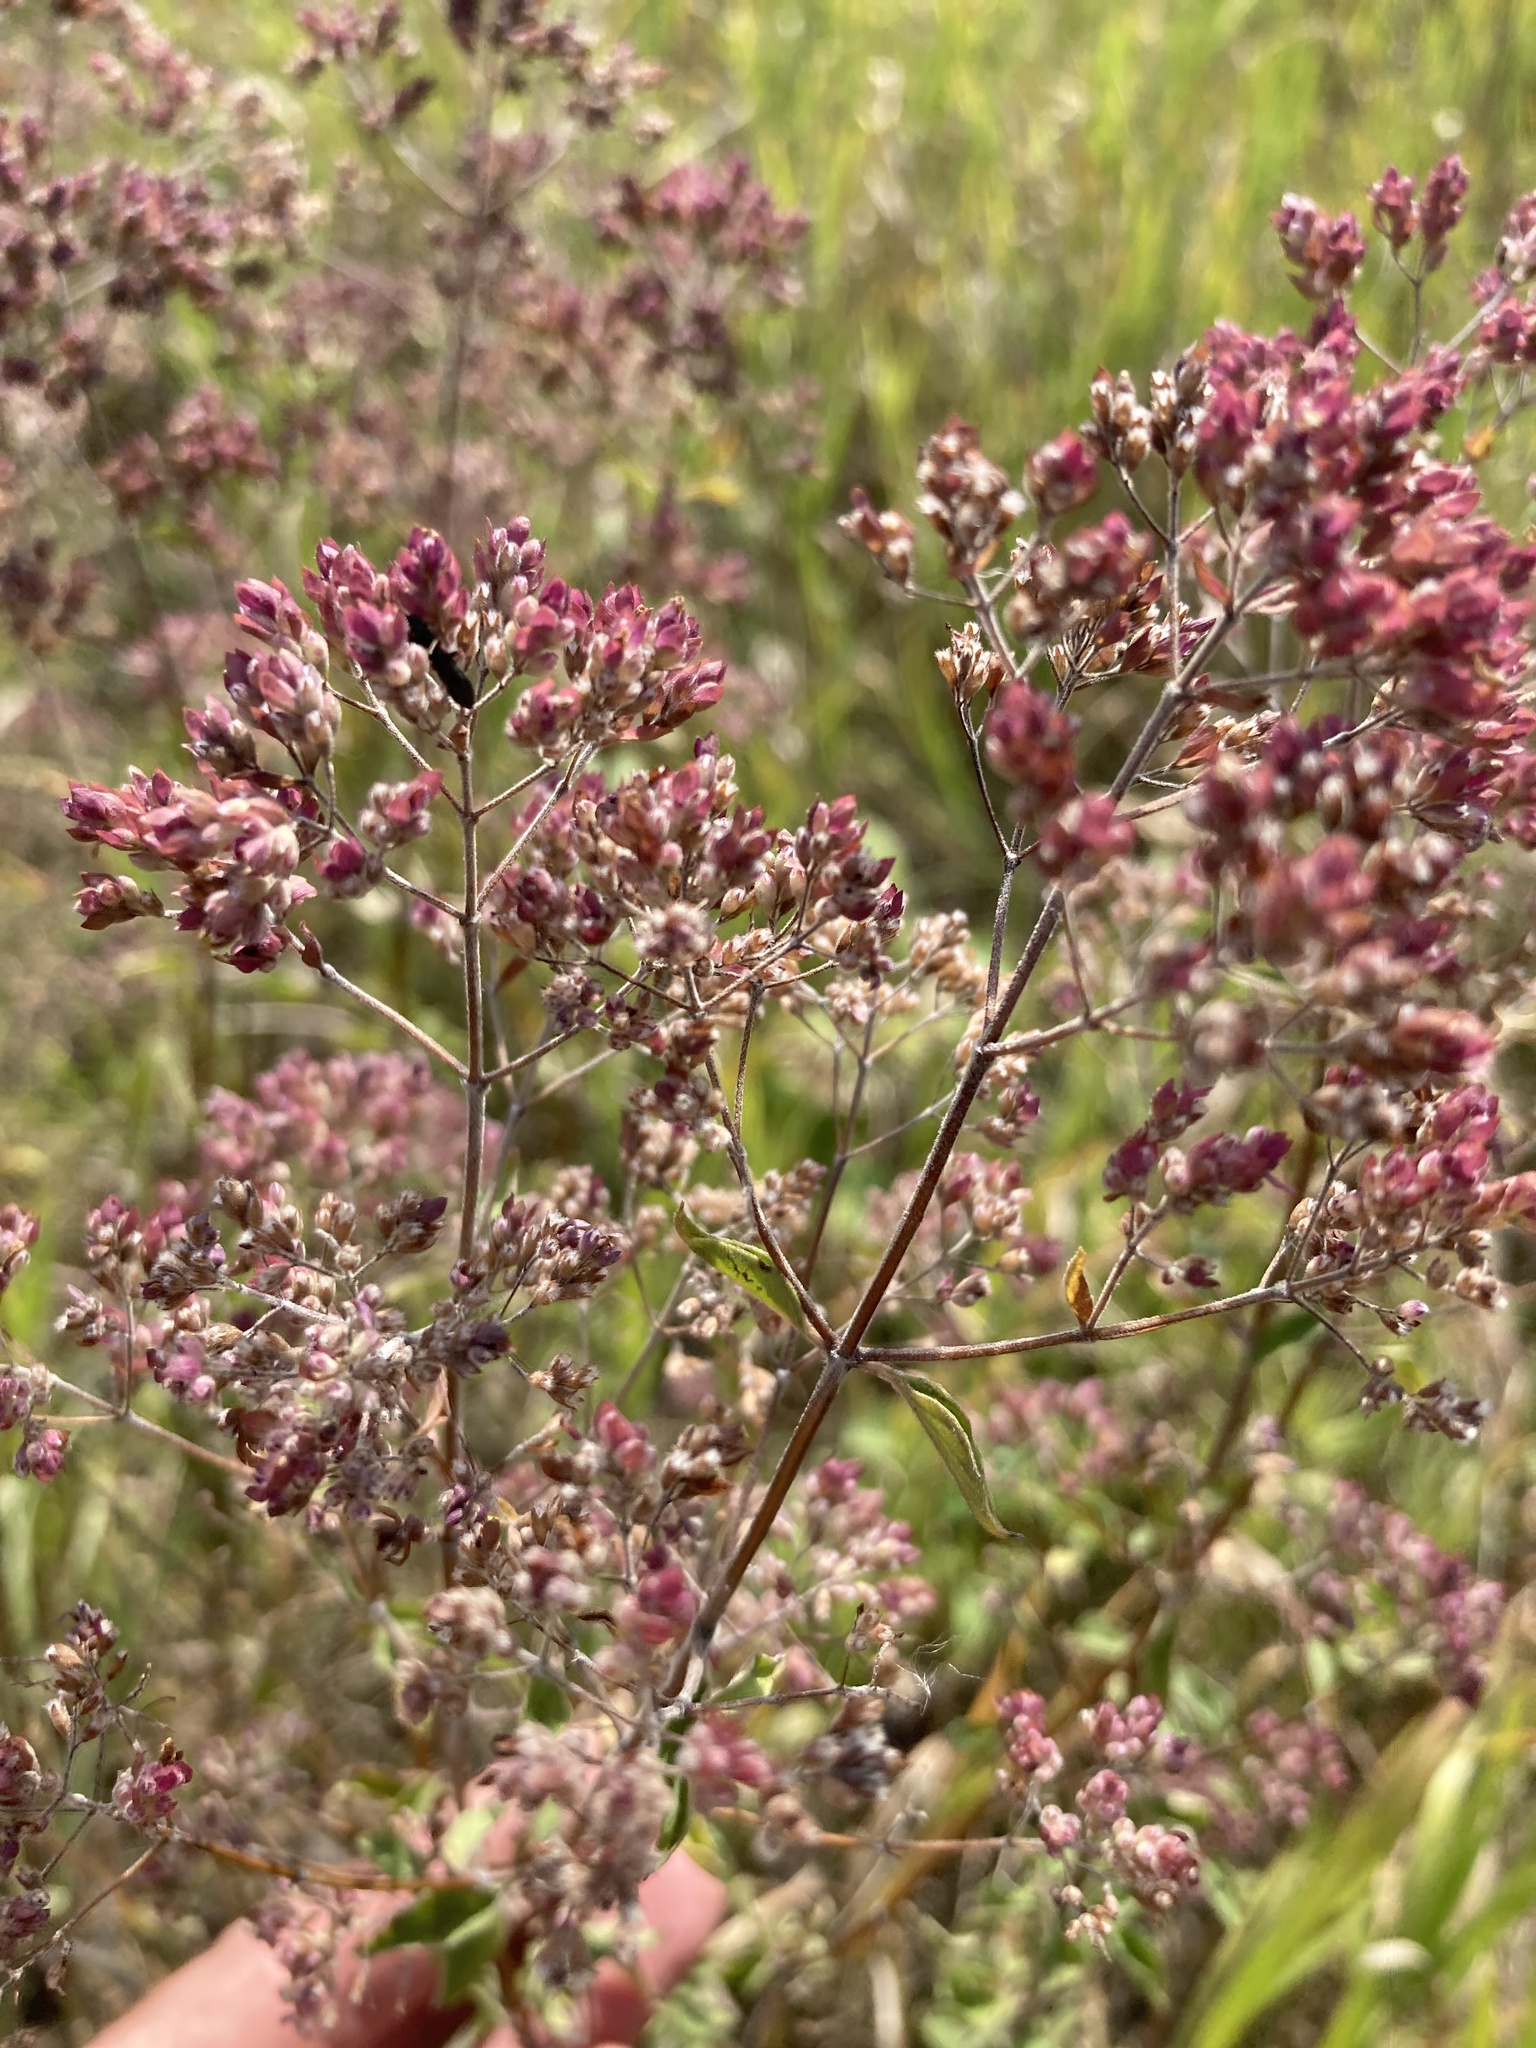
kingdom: Plantae
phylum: Tracheophyta
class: Magnoliopsida
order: Lamiales
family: Lamiaceae
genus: Origanum
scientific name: Origanum vulgare
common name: Wild marjoram
